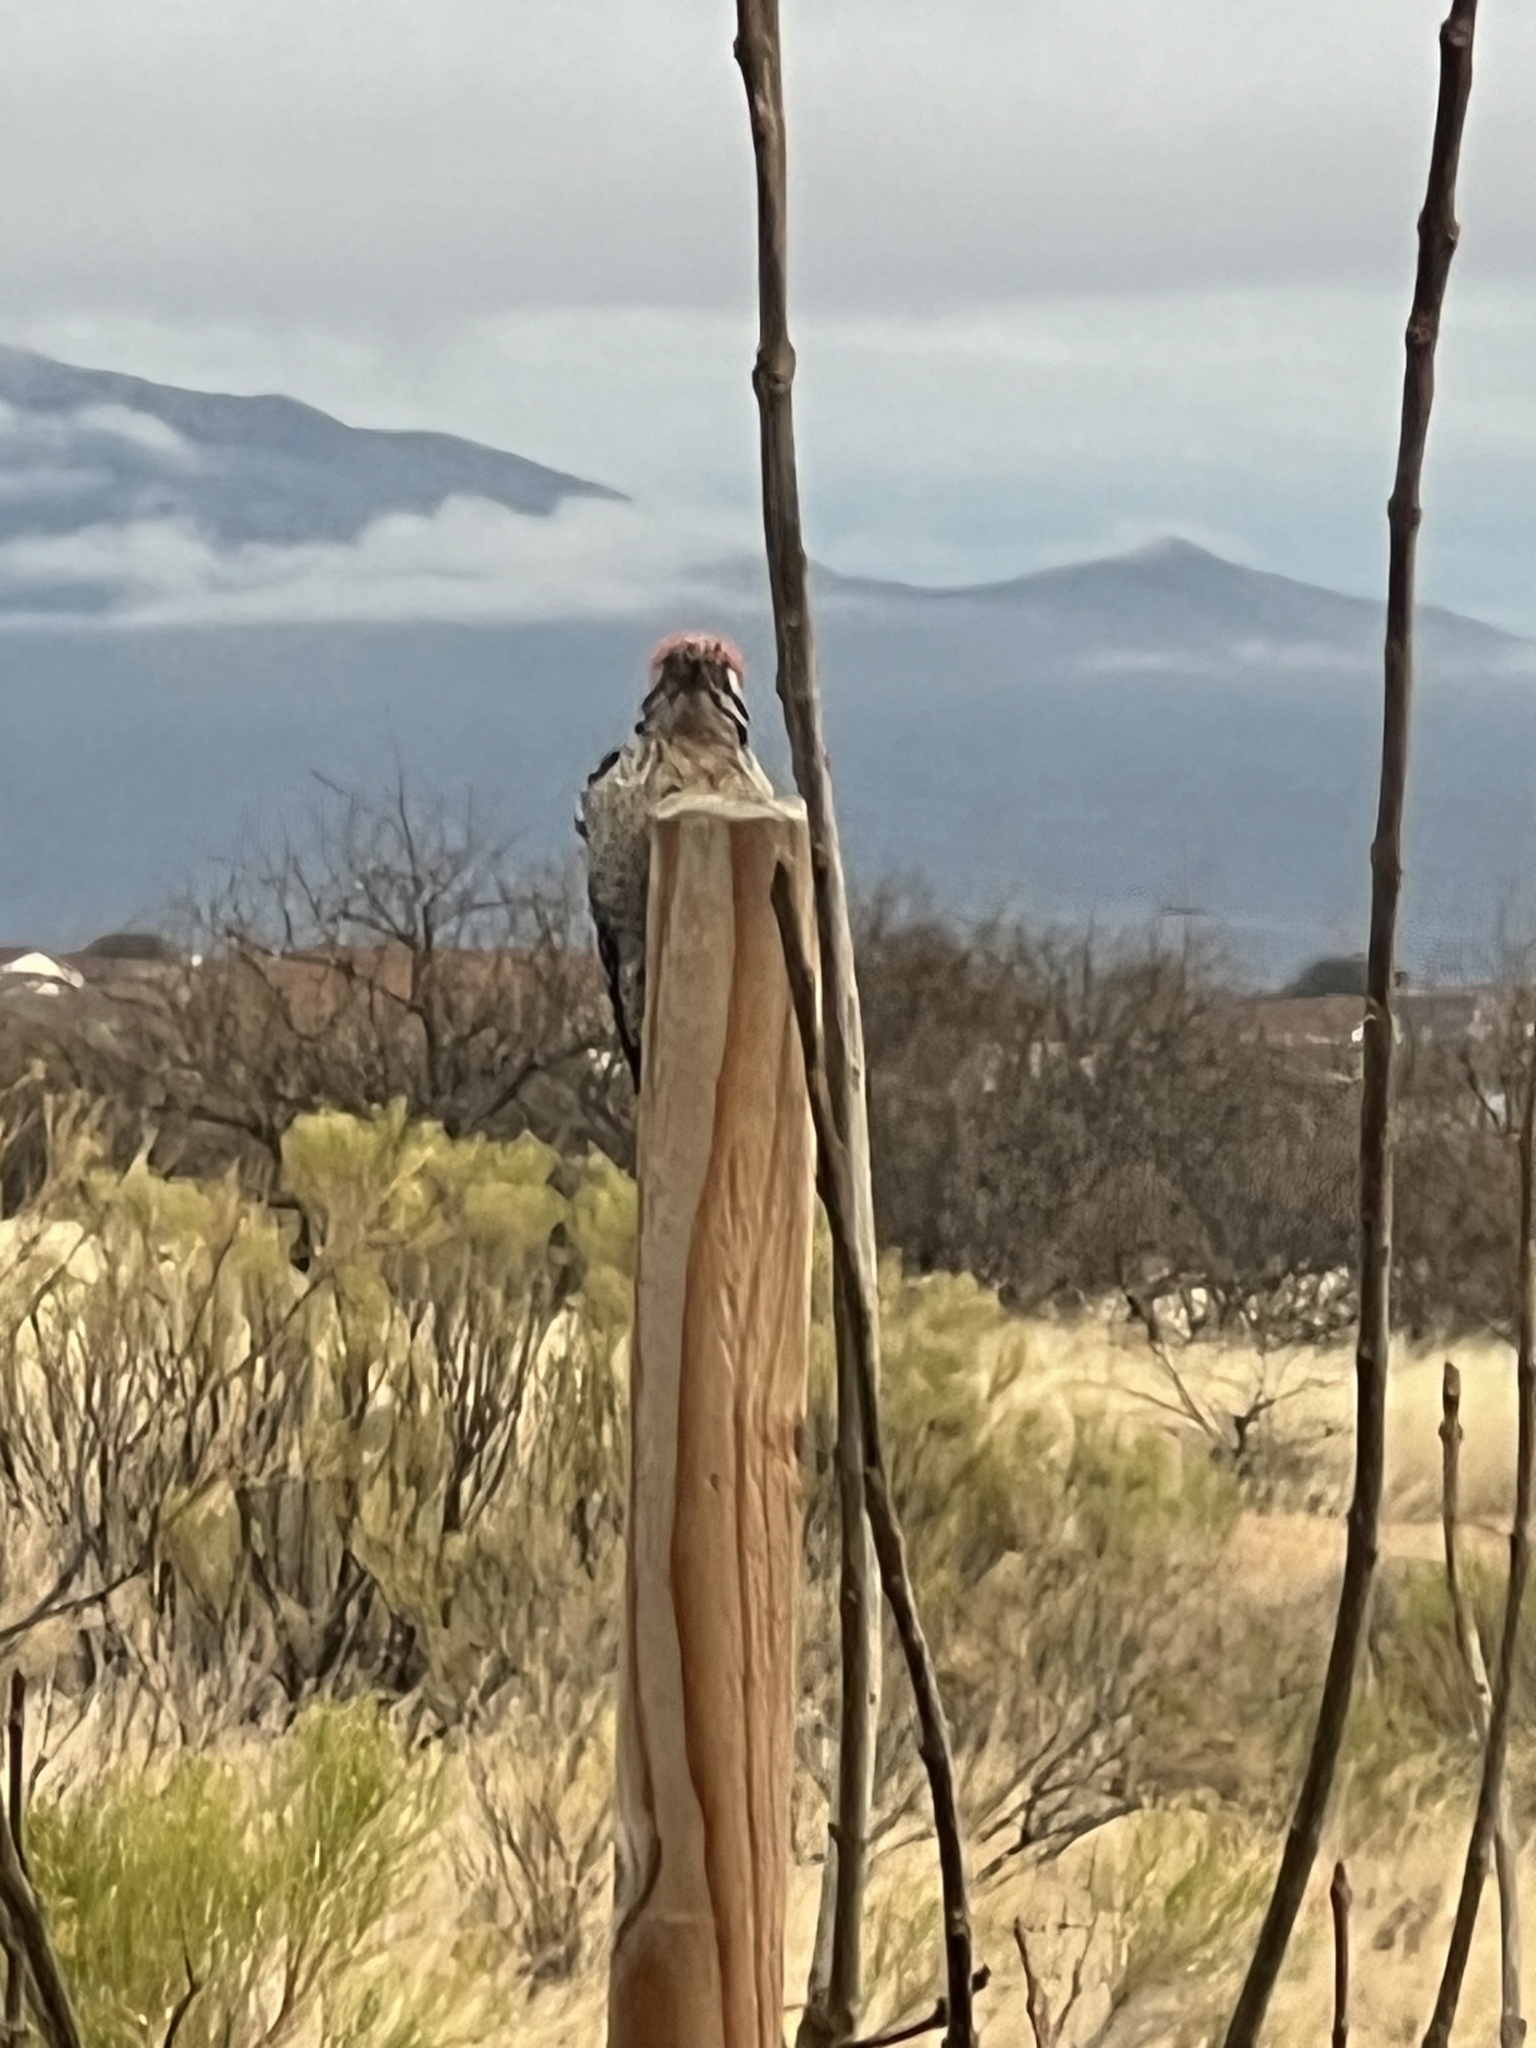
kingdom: Animalia
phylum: Chordata
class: Aves
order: Piciformes
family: Picidae
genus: Dryobates
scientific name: Dryobates scalaris
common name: Ladder-backed woodpecker
